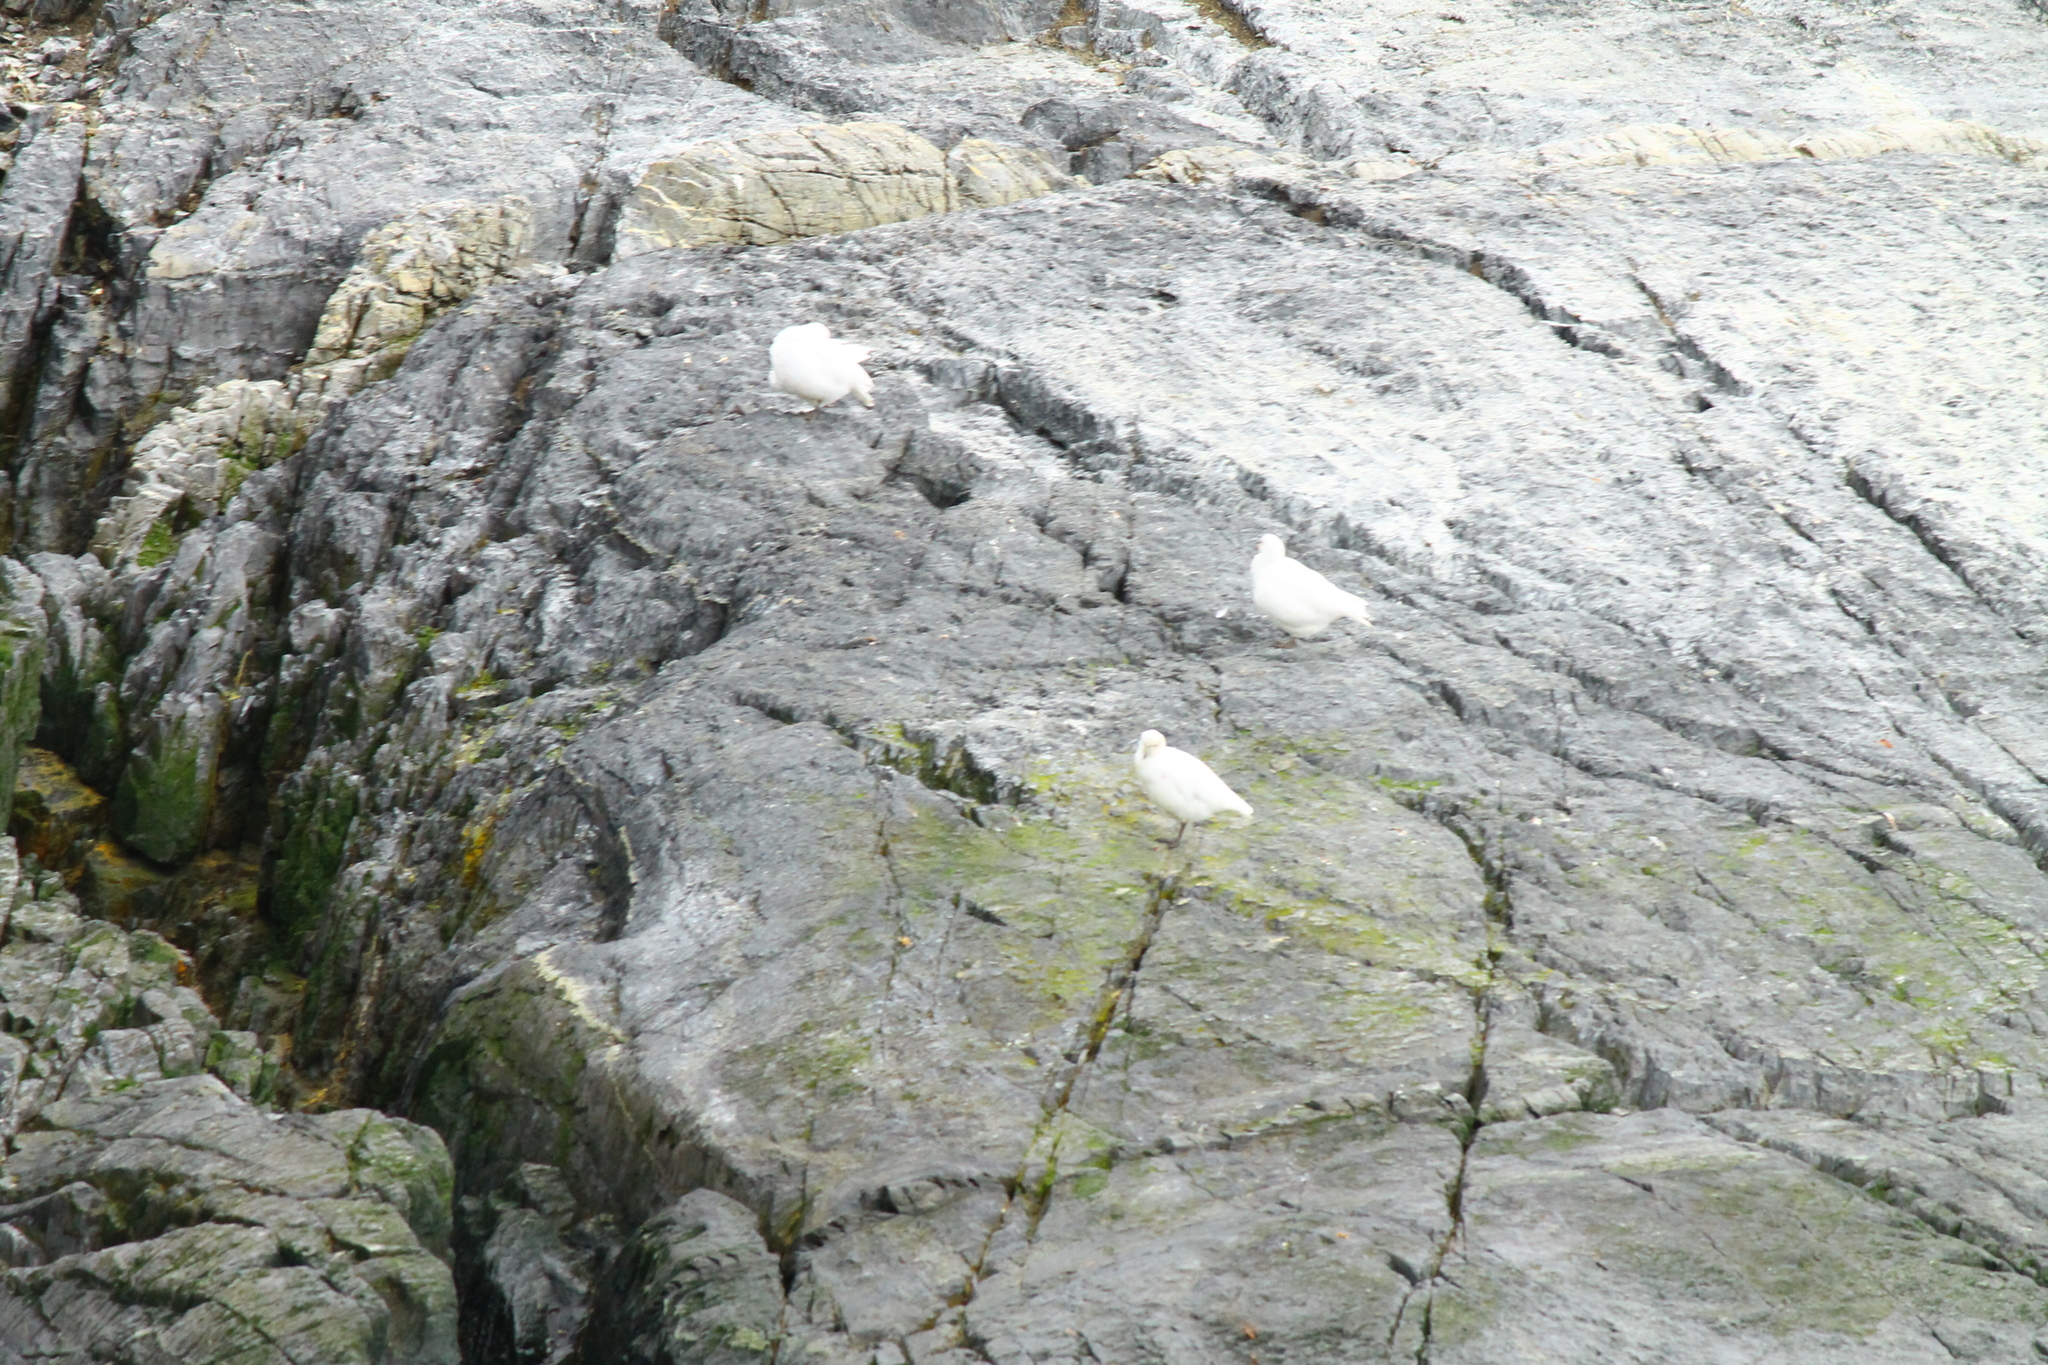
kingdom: Animalia
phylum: Chordata
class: Aves
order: Charadriiformes
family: Chionidae
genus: Chionis
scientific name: Chionis albus
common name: Snowy sheathbill
